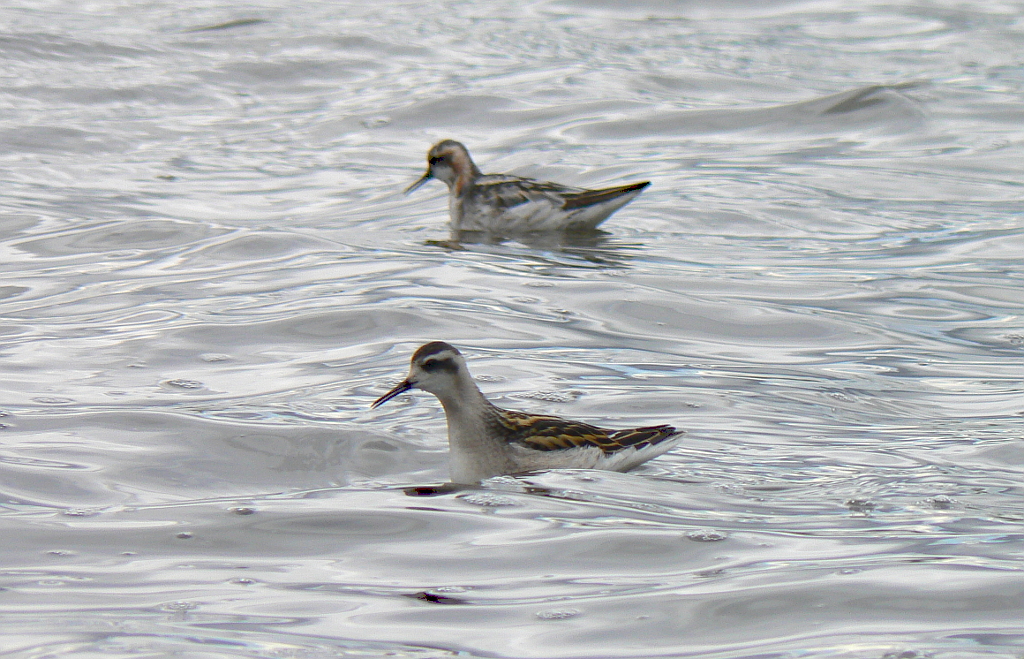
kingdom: Animalia
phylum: Chordata
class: Aves
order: Charadriiformes
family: Scolopacidae
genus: Phalaropus
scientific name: Phalaropus lobatus
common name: Red-necked phalarope
